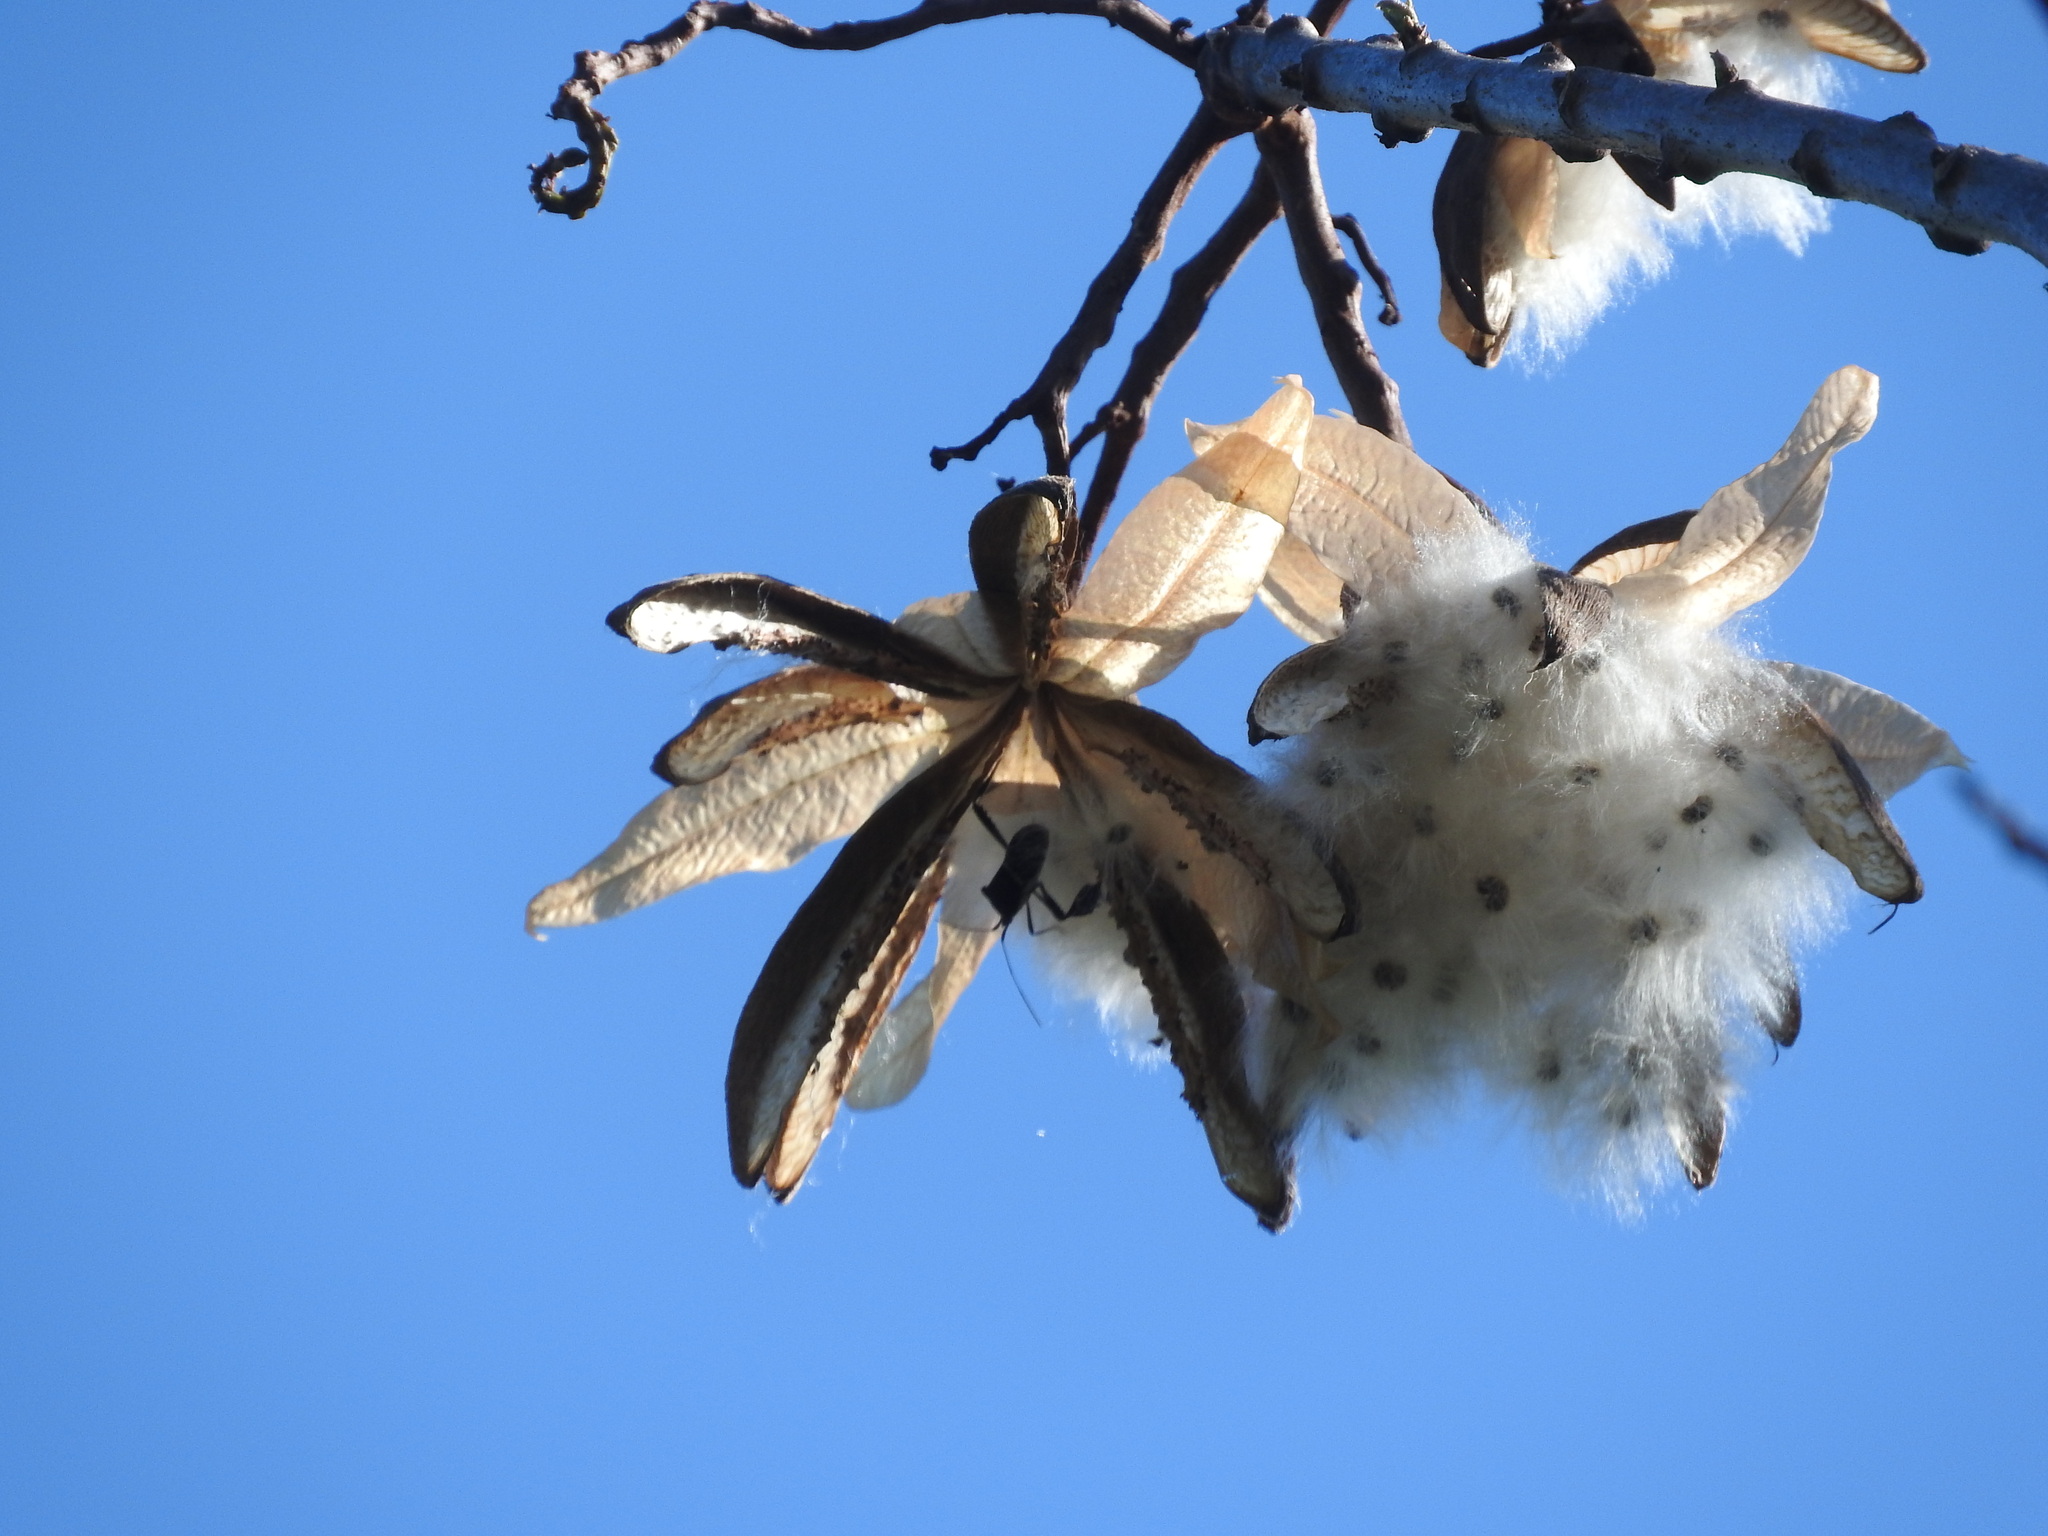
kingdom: Plantae
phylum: Tracheophyta
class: Magnoliopsida
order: Malvales
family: Cochlospermaceae
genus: Cochlospermum
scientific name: Cochlospermum vitifolium
